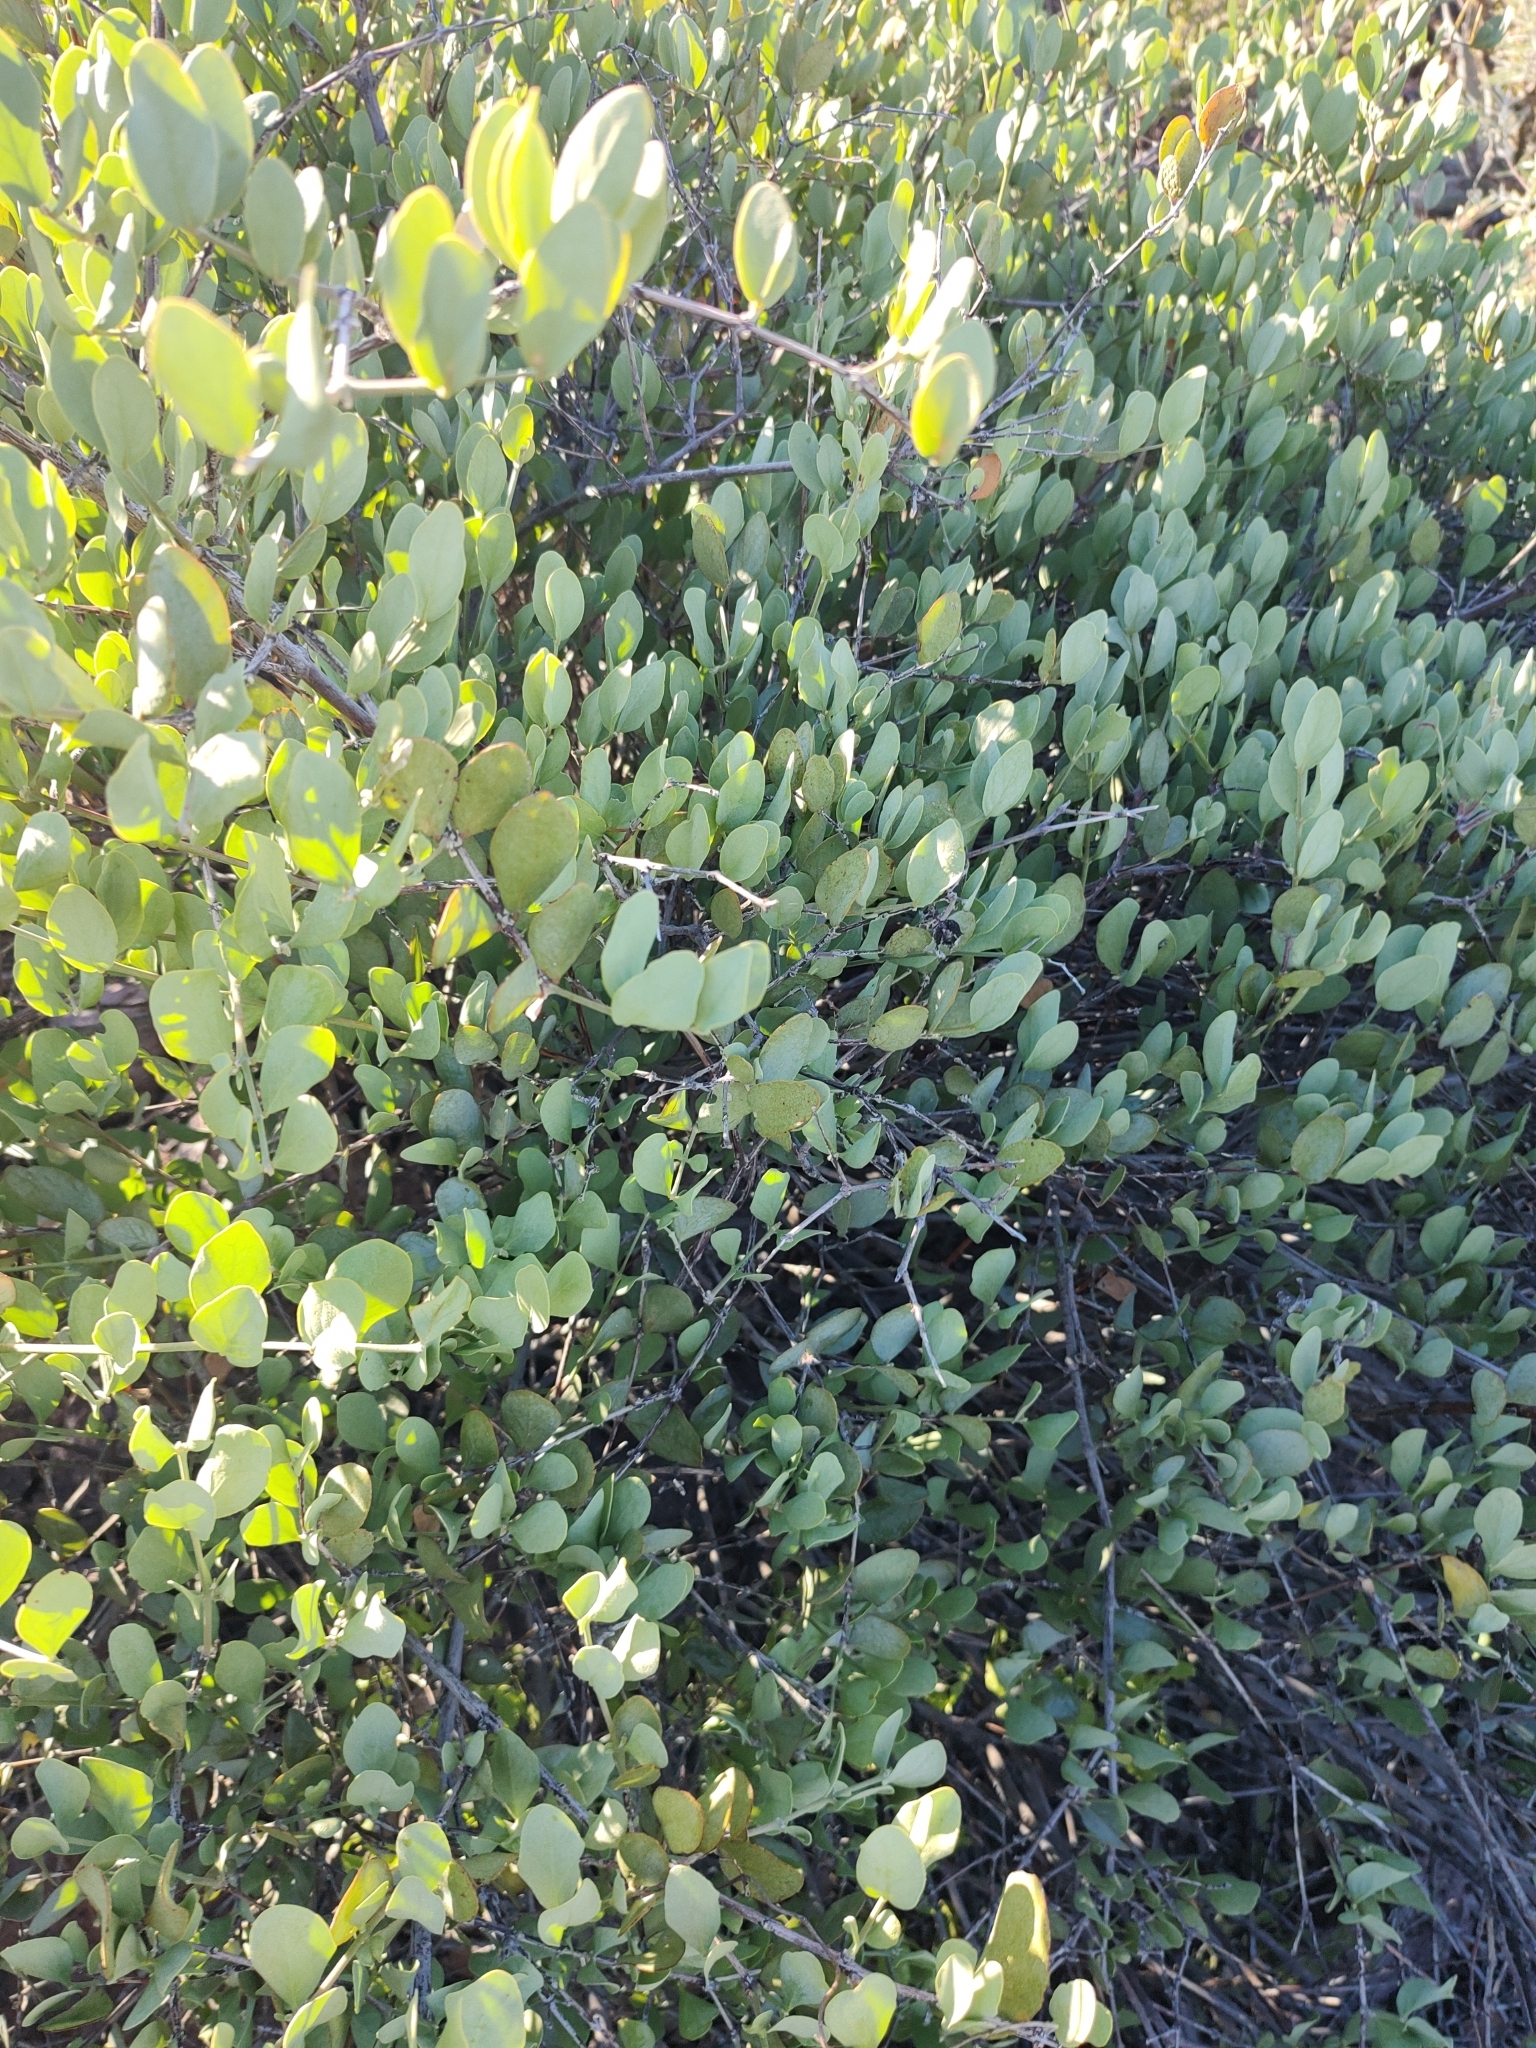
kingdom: Plantae
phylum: Tracheophyta
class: Magnoliopsida
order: Caryophyllales
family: Simmondsiaceae
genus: Simmondsia
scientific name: Simmondsia chinensis
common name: Jojoba
